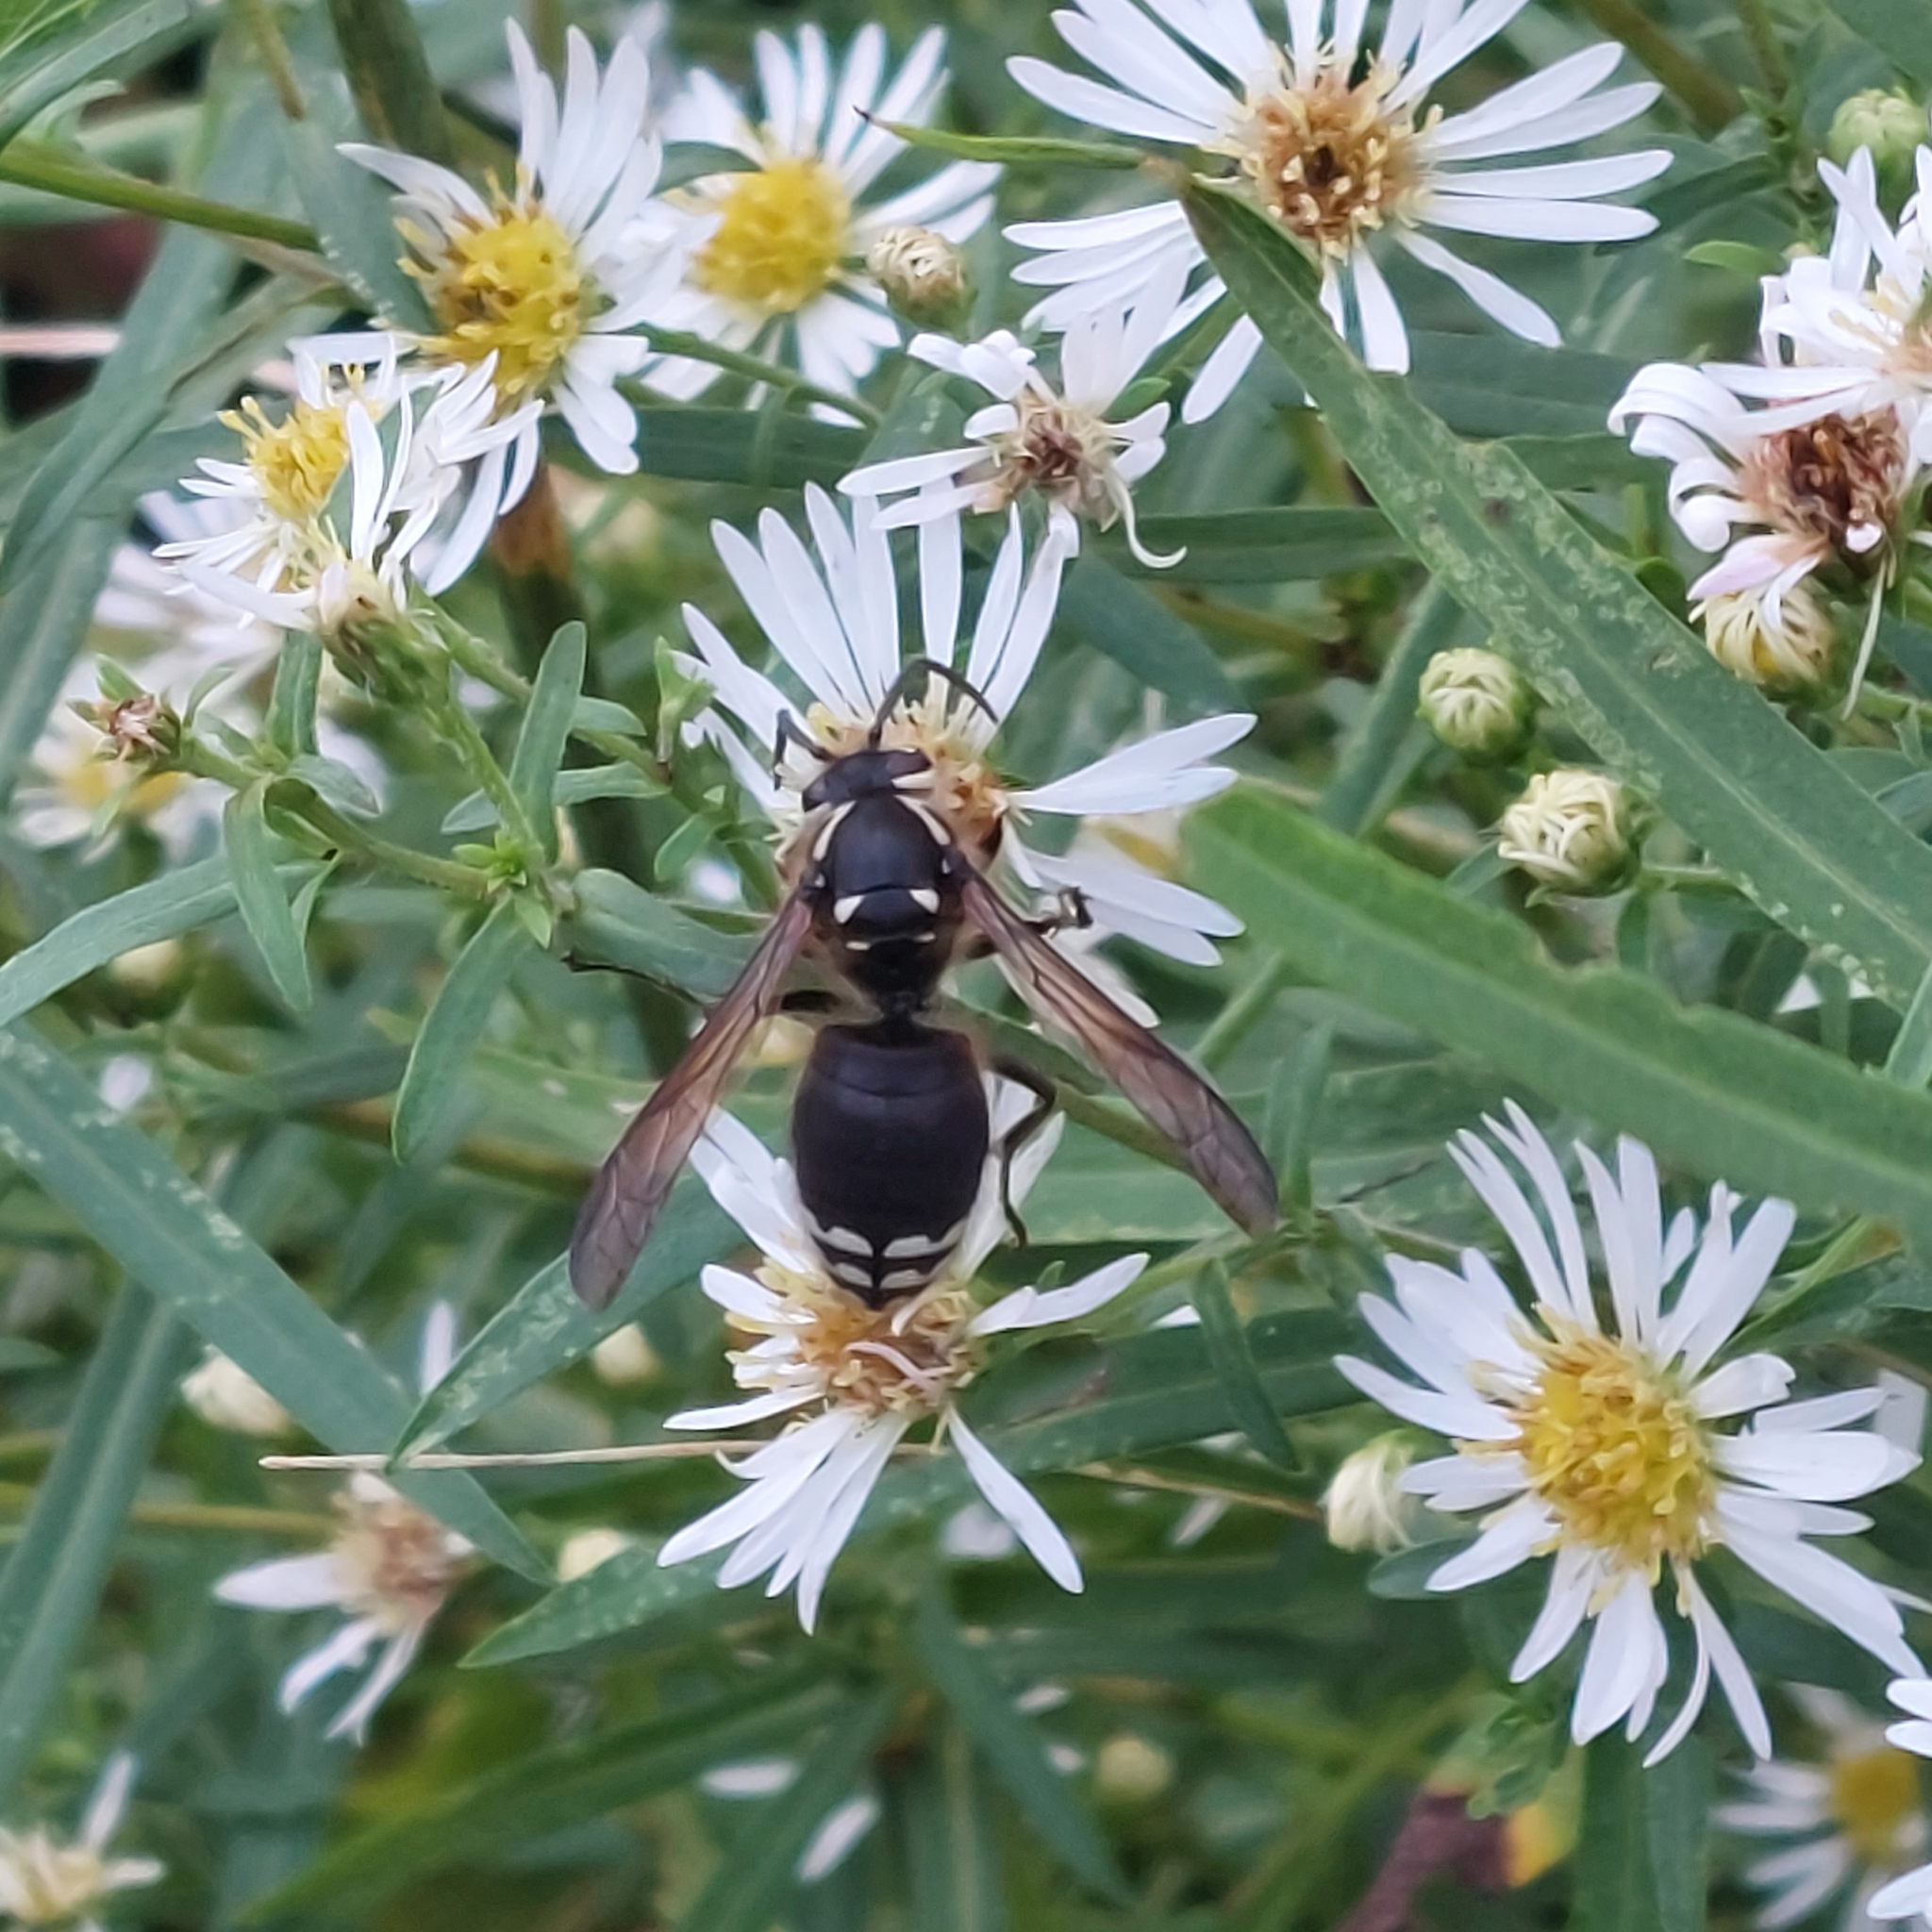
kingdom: Animalia
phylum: Arthropoda
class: Insecta
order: Hymenoptera
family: Vespidae
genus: Dolichovespula
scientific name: Dolichovespula maculata
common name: Bald-faced hornet
